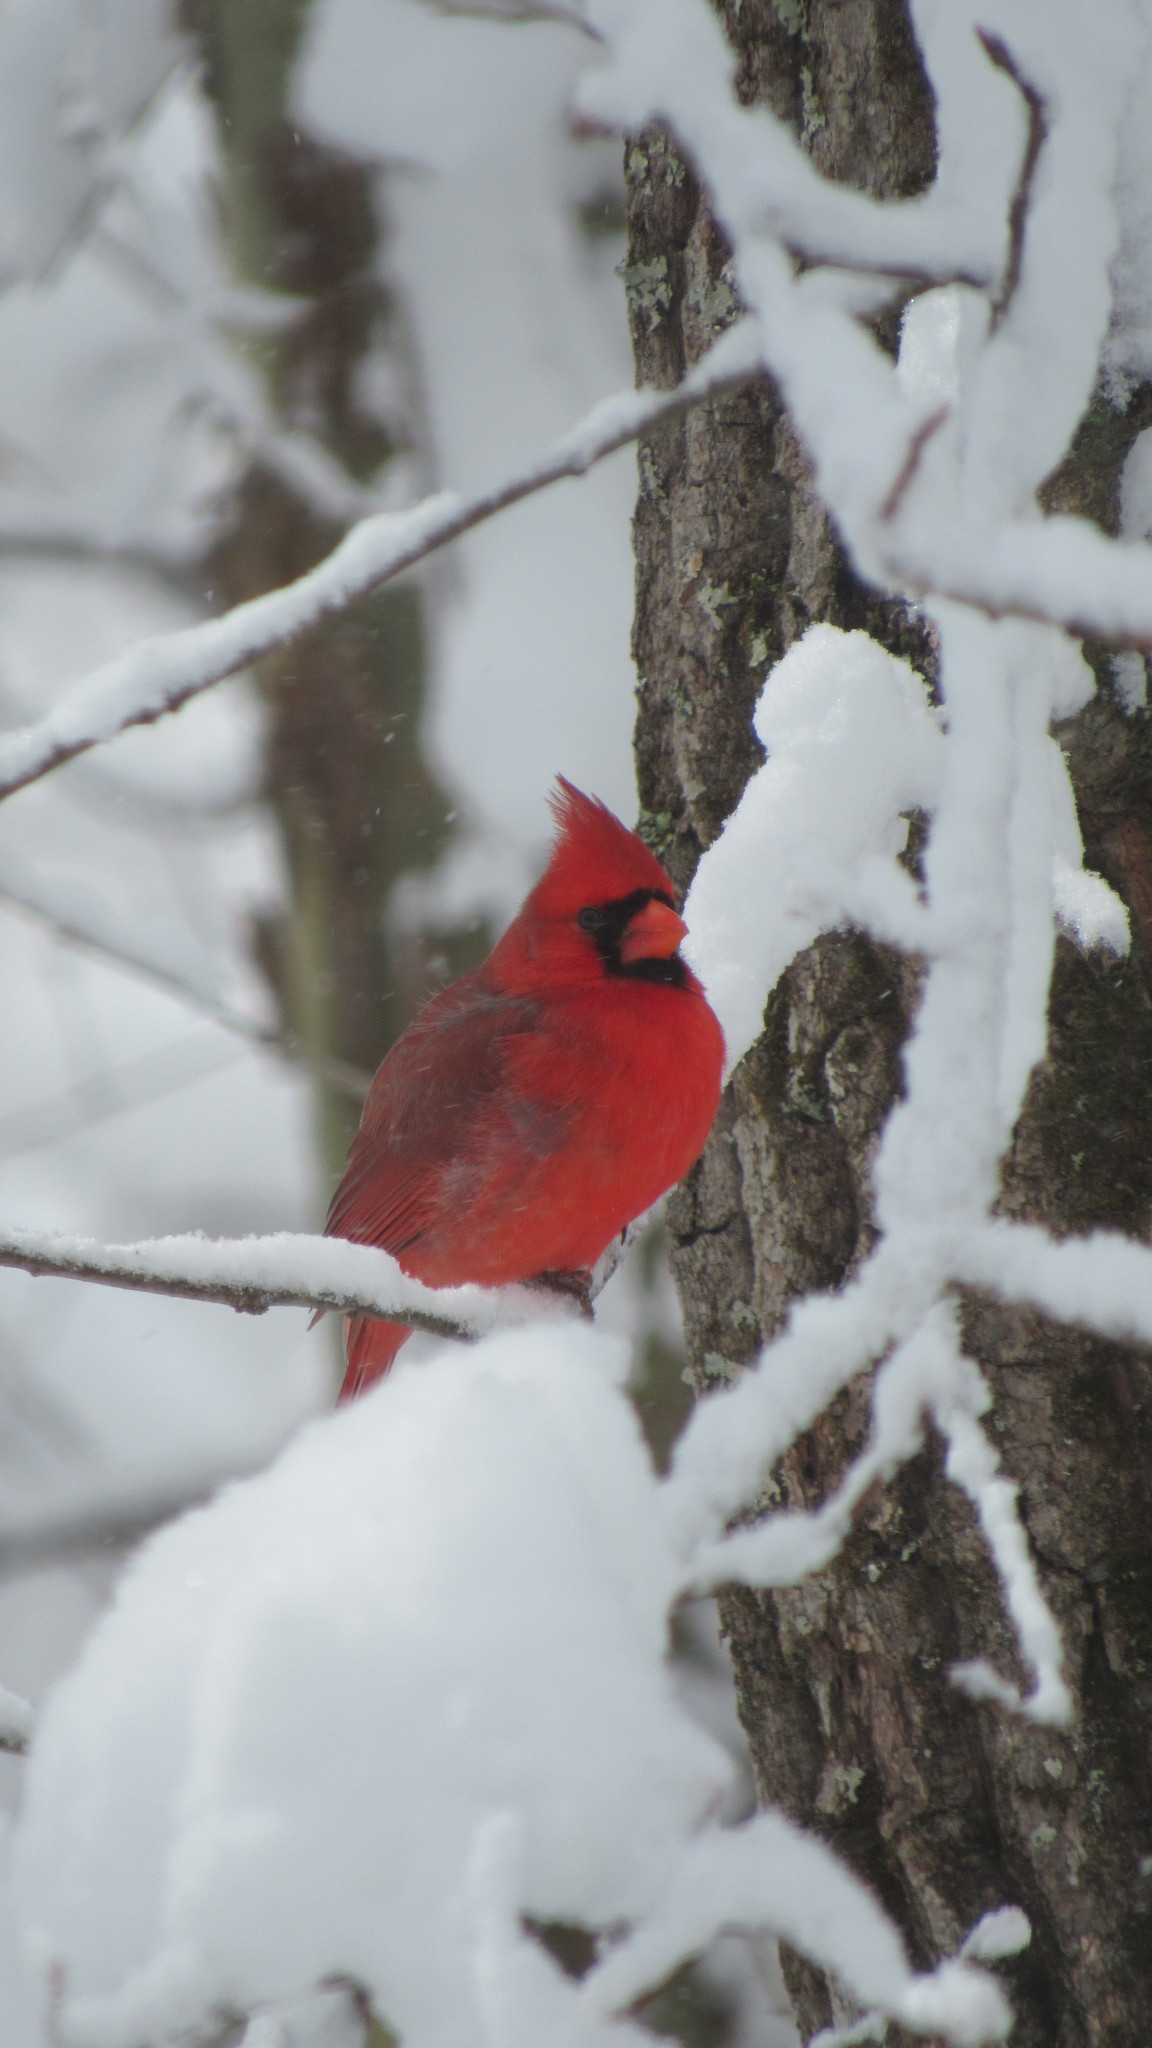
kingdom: Animalia
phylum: Chordata
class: Aves
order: Passeriformes
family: Cardinalidae
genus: Cardinalis
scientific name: Cardinalis cardinalis
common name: Northern cardinal
